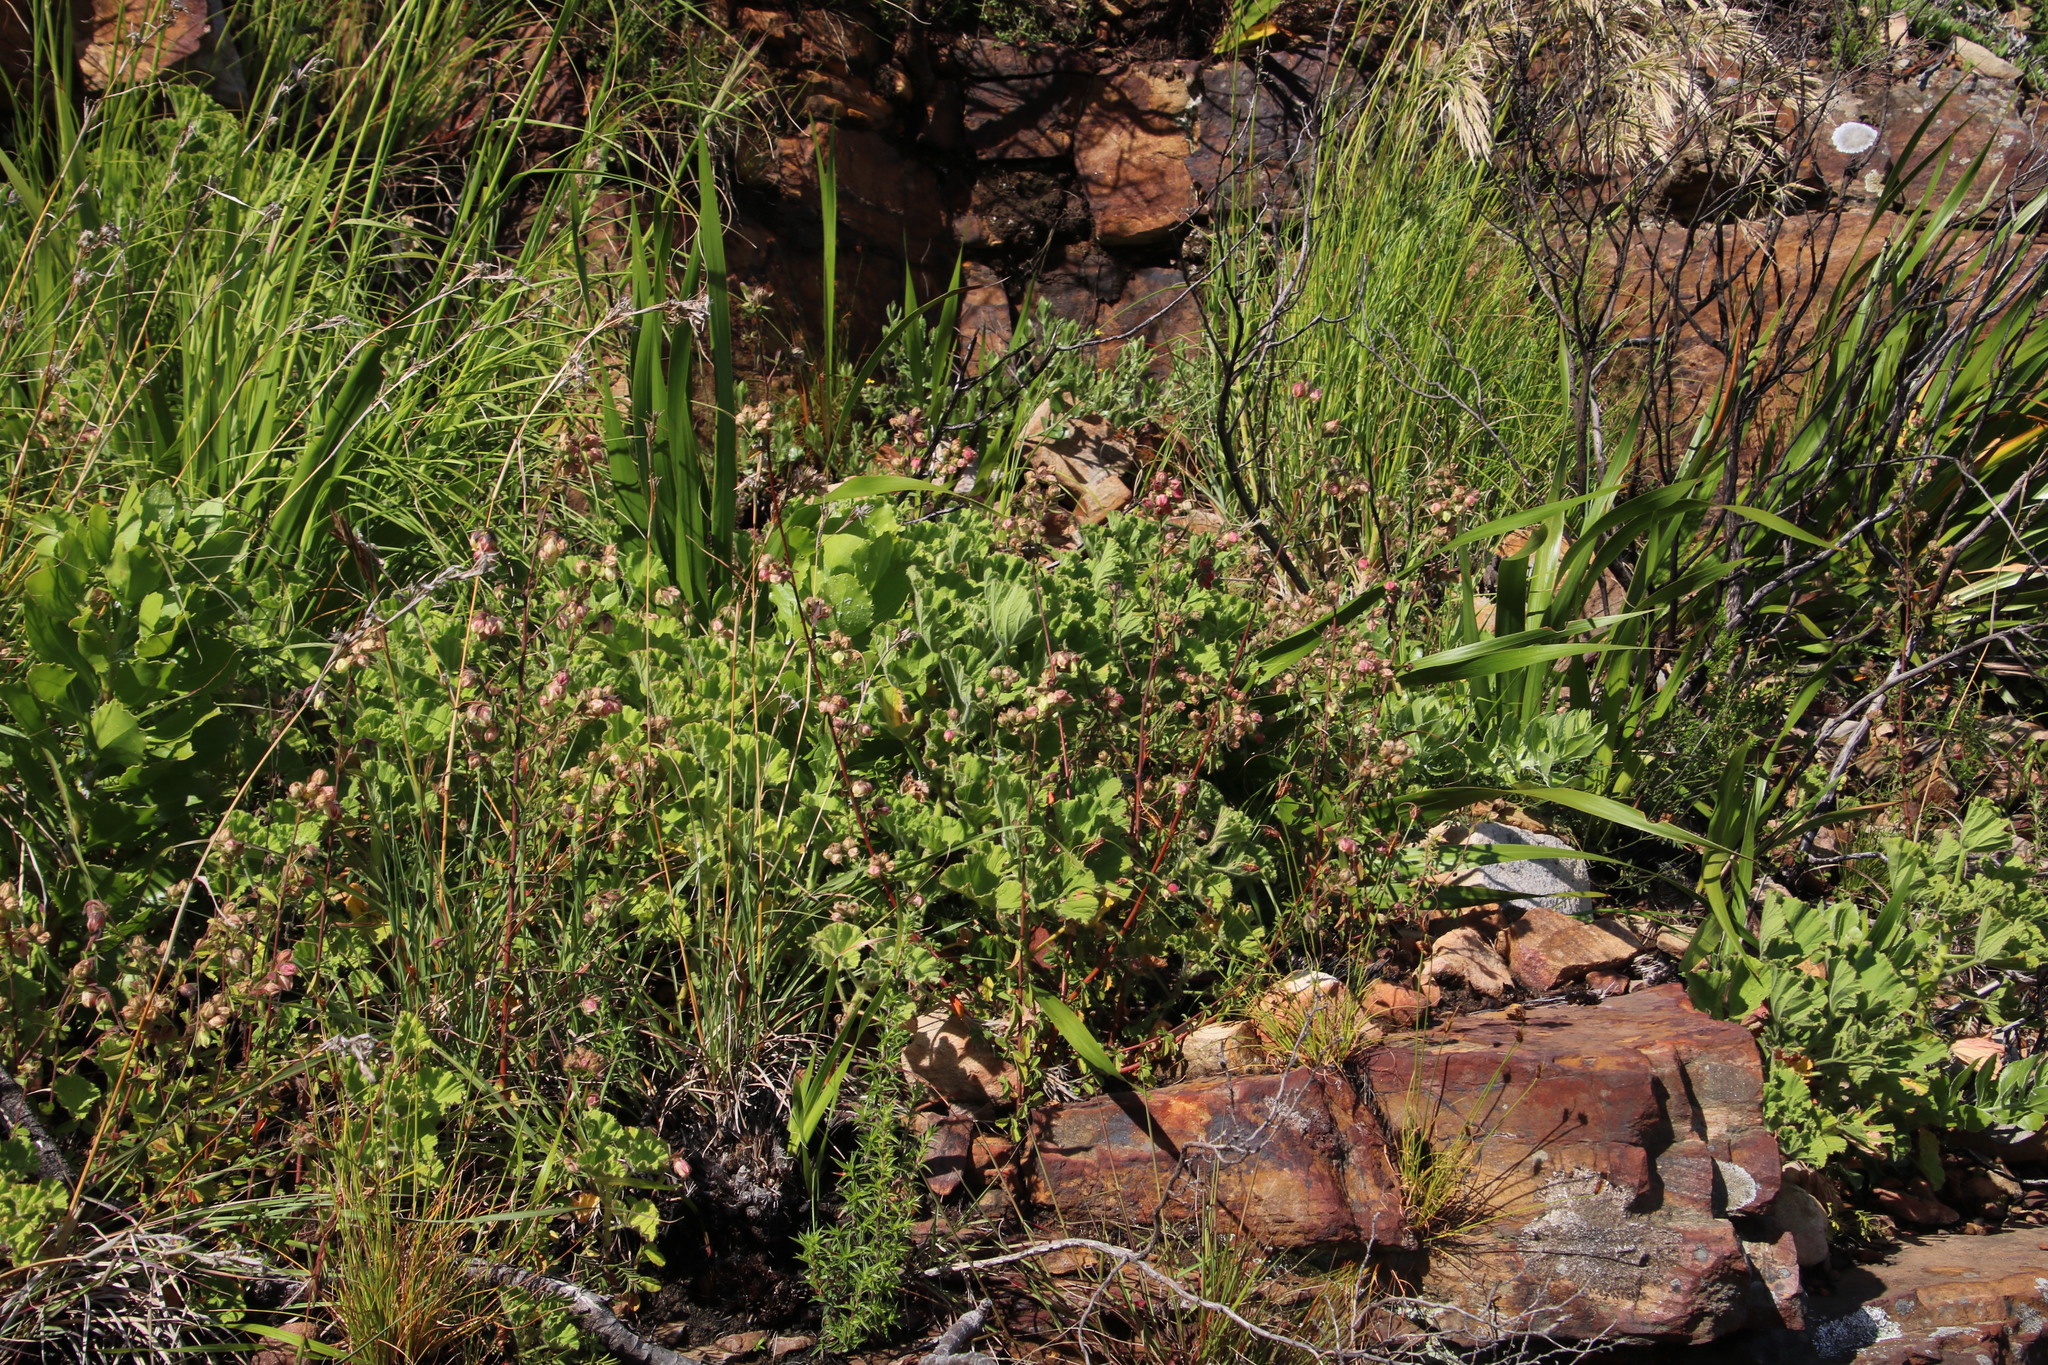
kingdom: Plantae
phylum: Tracheophyta
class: Magnoliopsida
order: Malvales
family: Malvaceae
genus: Hermannia
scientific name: Hermannia hyssopifolia
